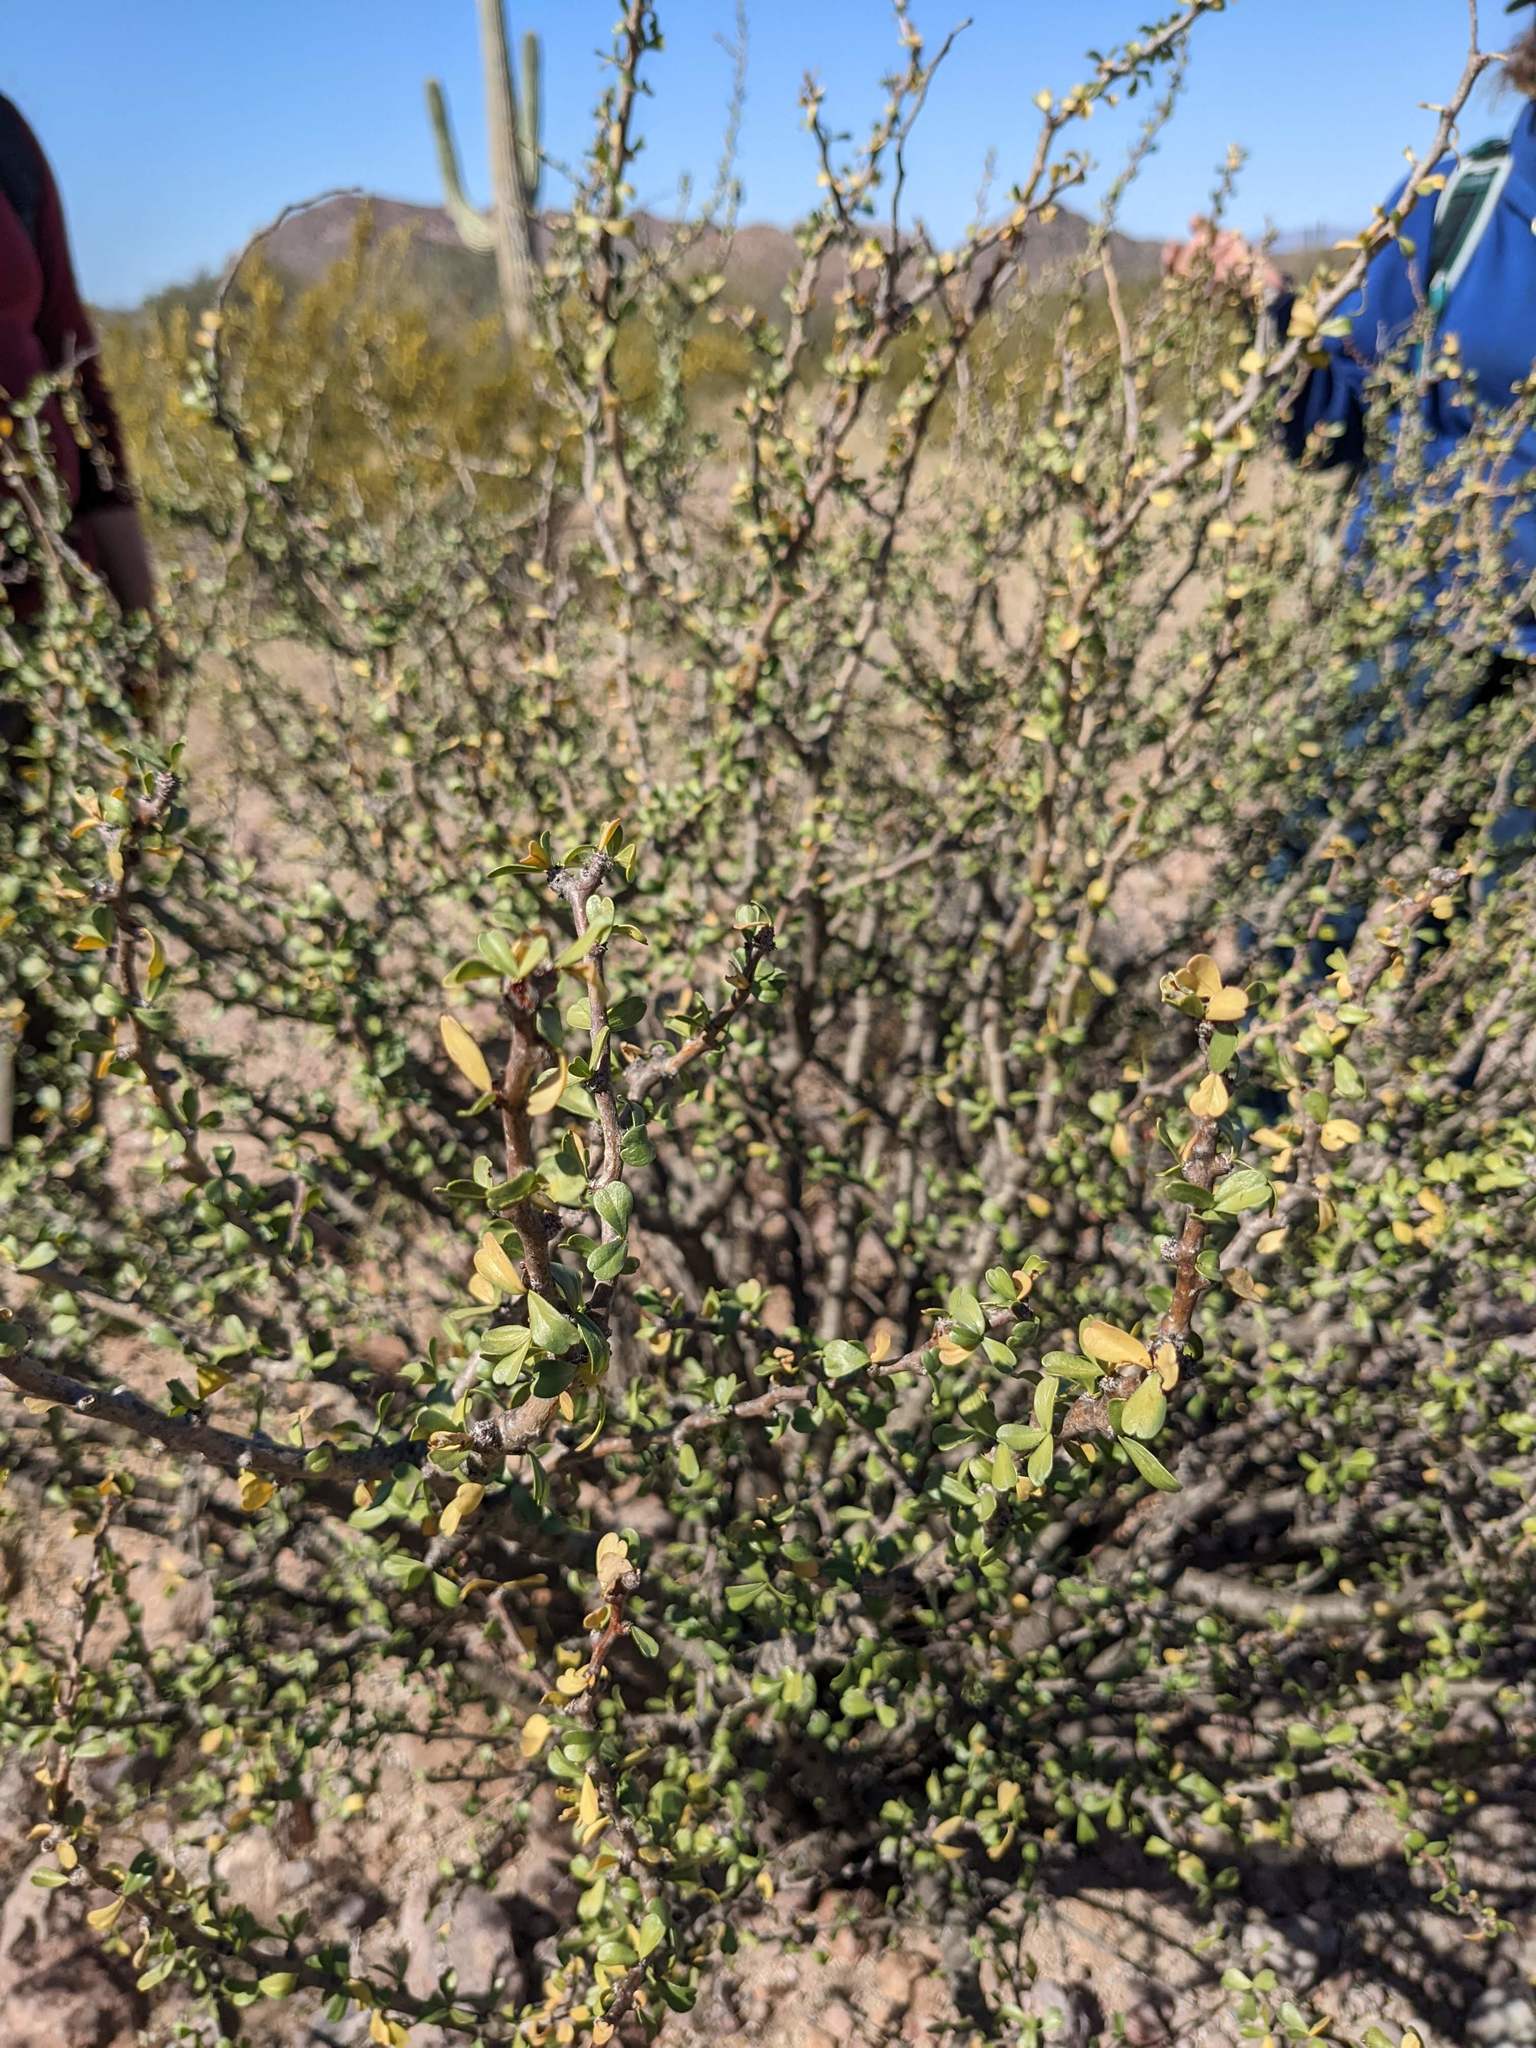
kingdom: Plantae
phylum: Tracheophyta
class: Magnoliopsida
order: Malpighiales
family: Euphorbiaceae
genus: Jatropha
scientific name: Jatropha cuneata
